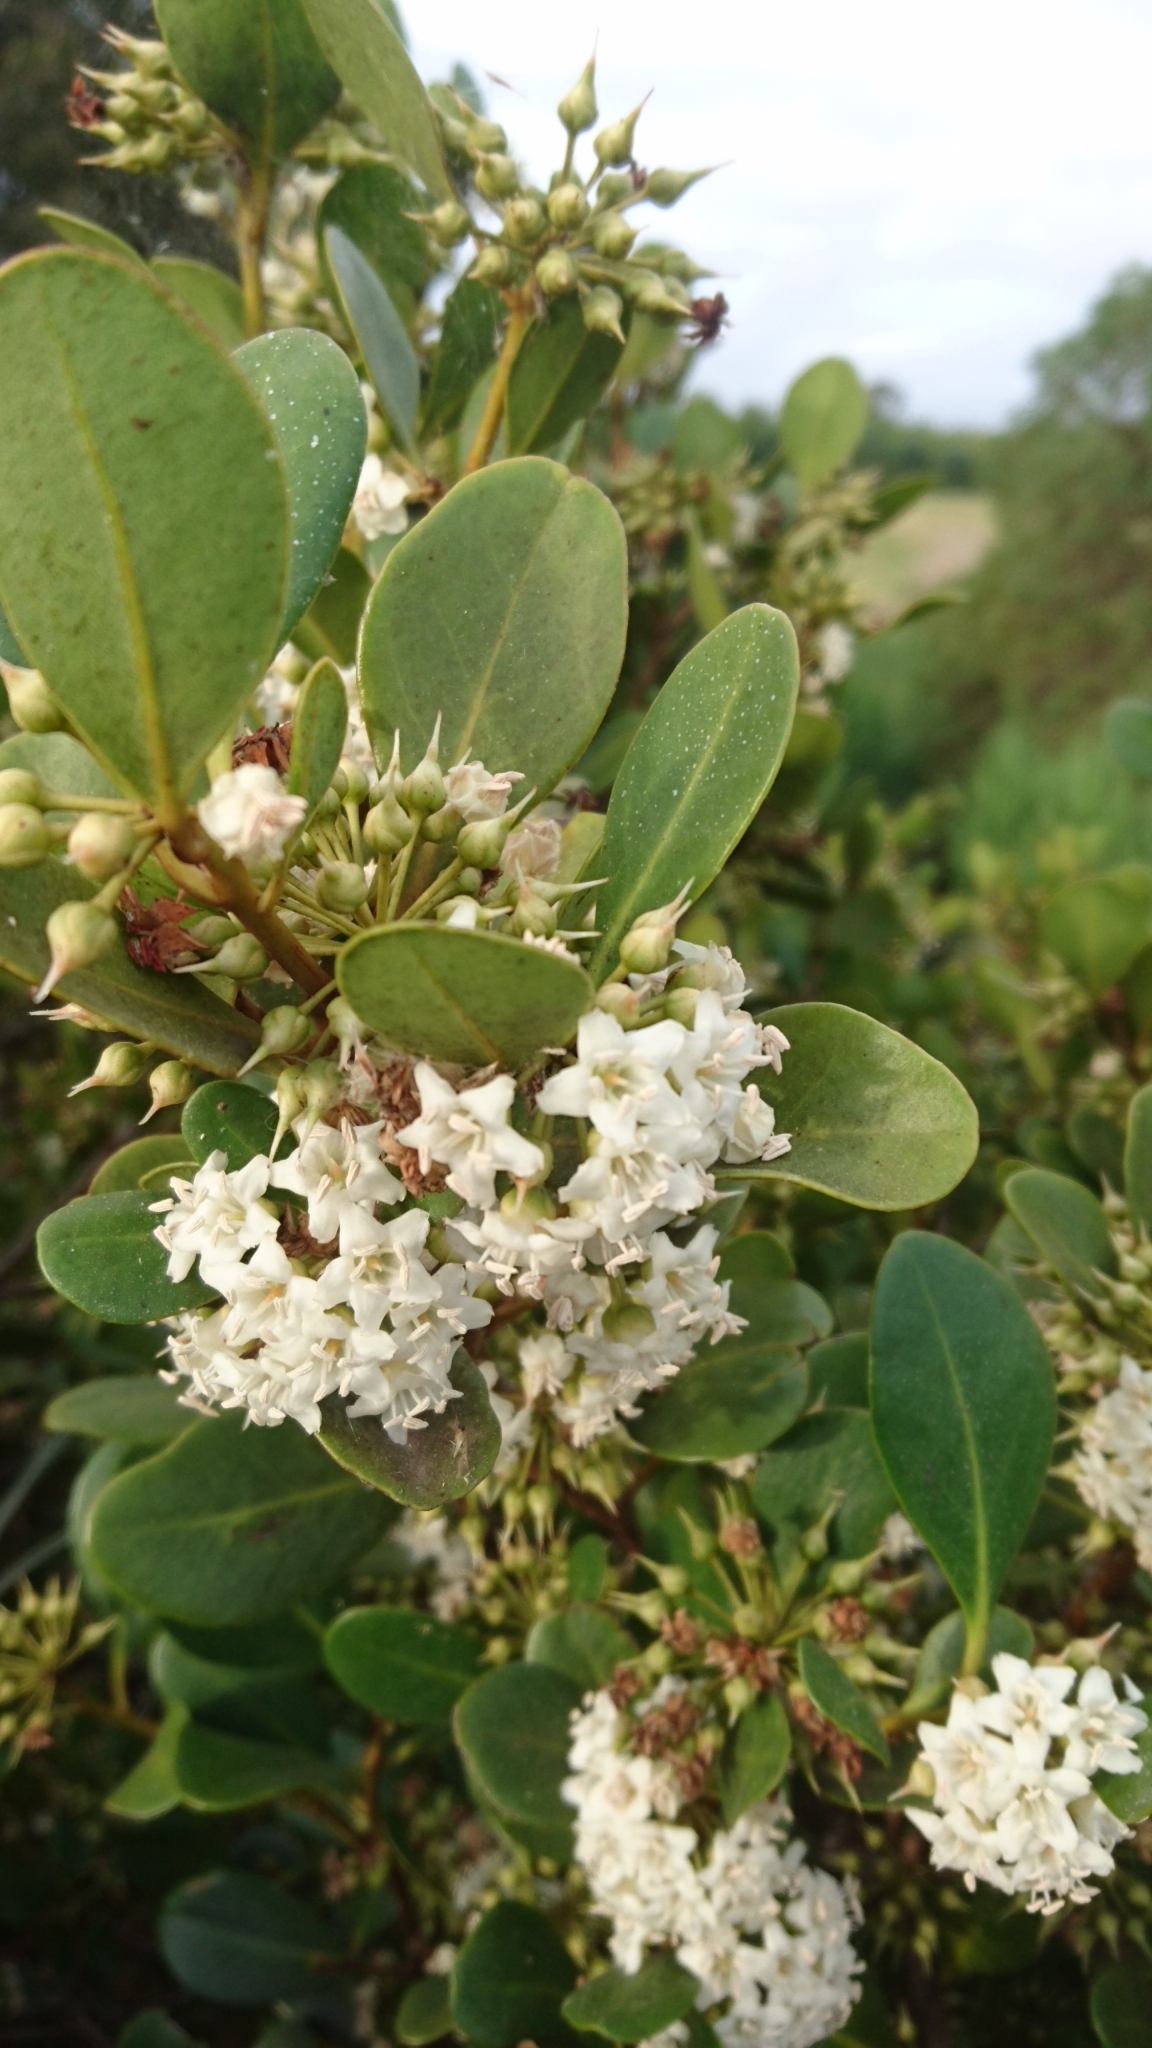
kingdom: Plantae
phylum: Tracheophyta
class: Magnoliopsida
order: Ericales
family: Primulaceae
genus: Aegiceras
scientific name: Aegiceras corniculatum
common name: River mangrove
